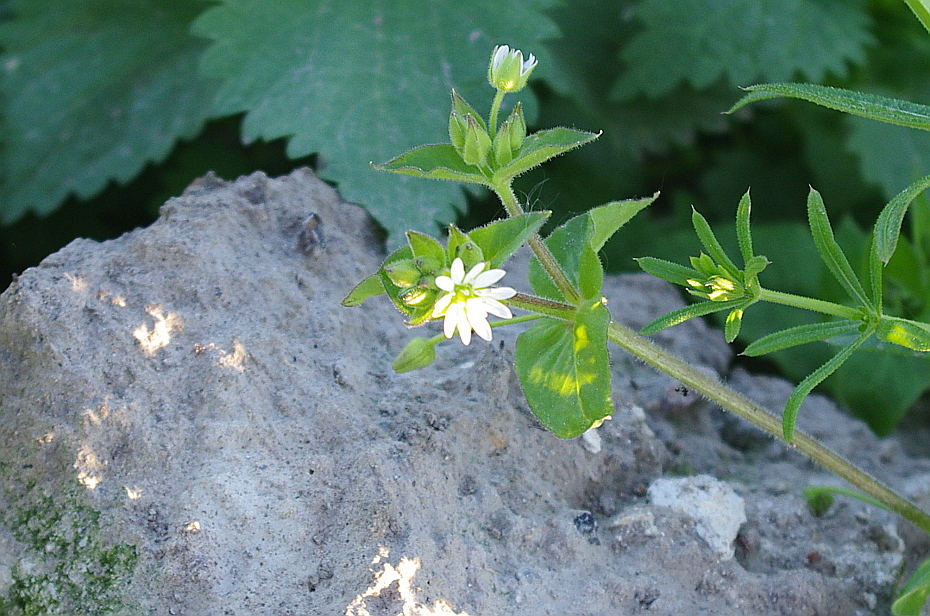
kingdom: Plantae
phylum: Tracheophyta
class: Magnoliopsida
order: Caryophyllales
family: Caryophyllaceae
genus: Stellaria
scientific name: Stellaria aquatica
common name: Water chickweed
